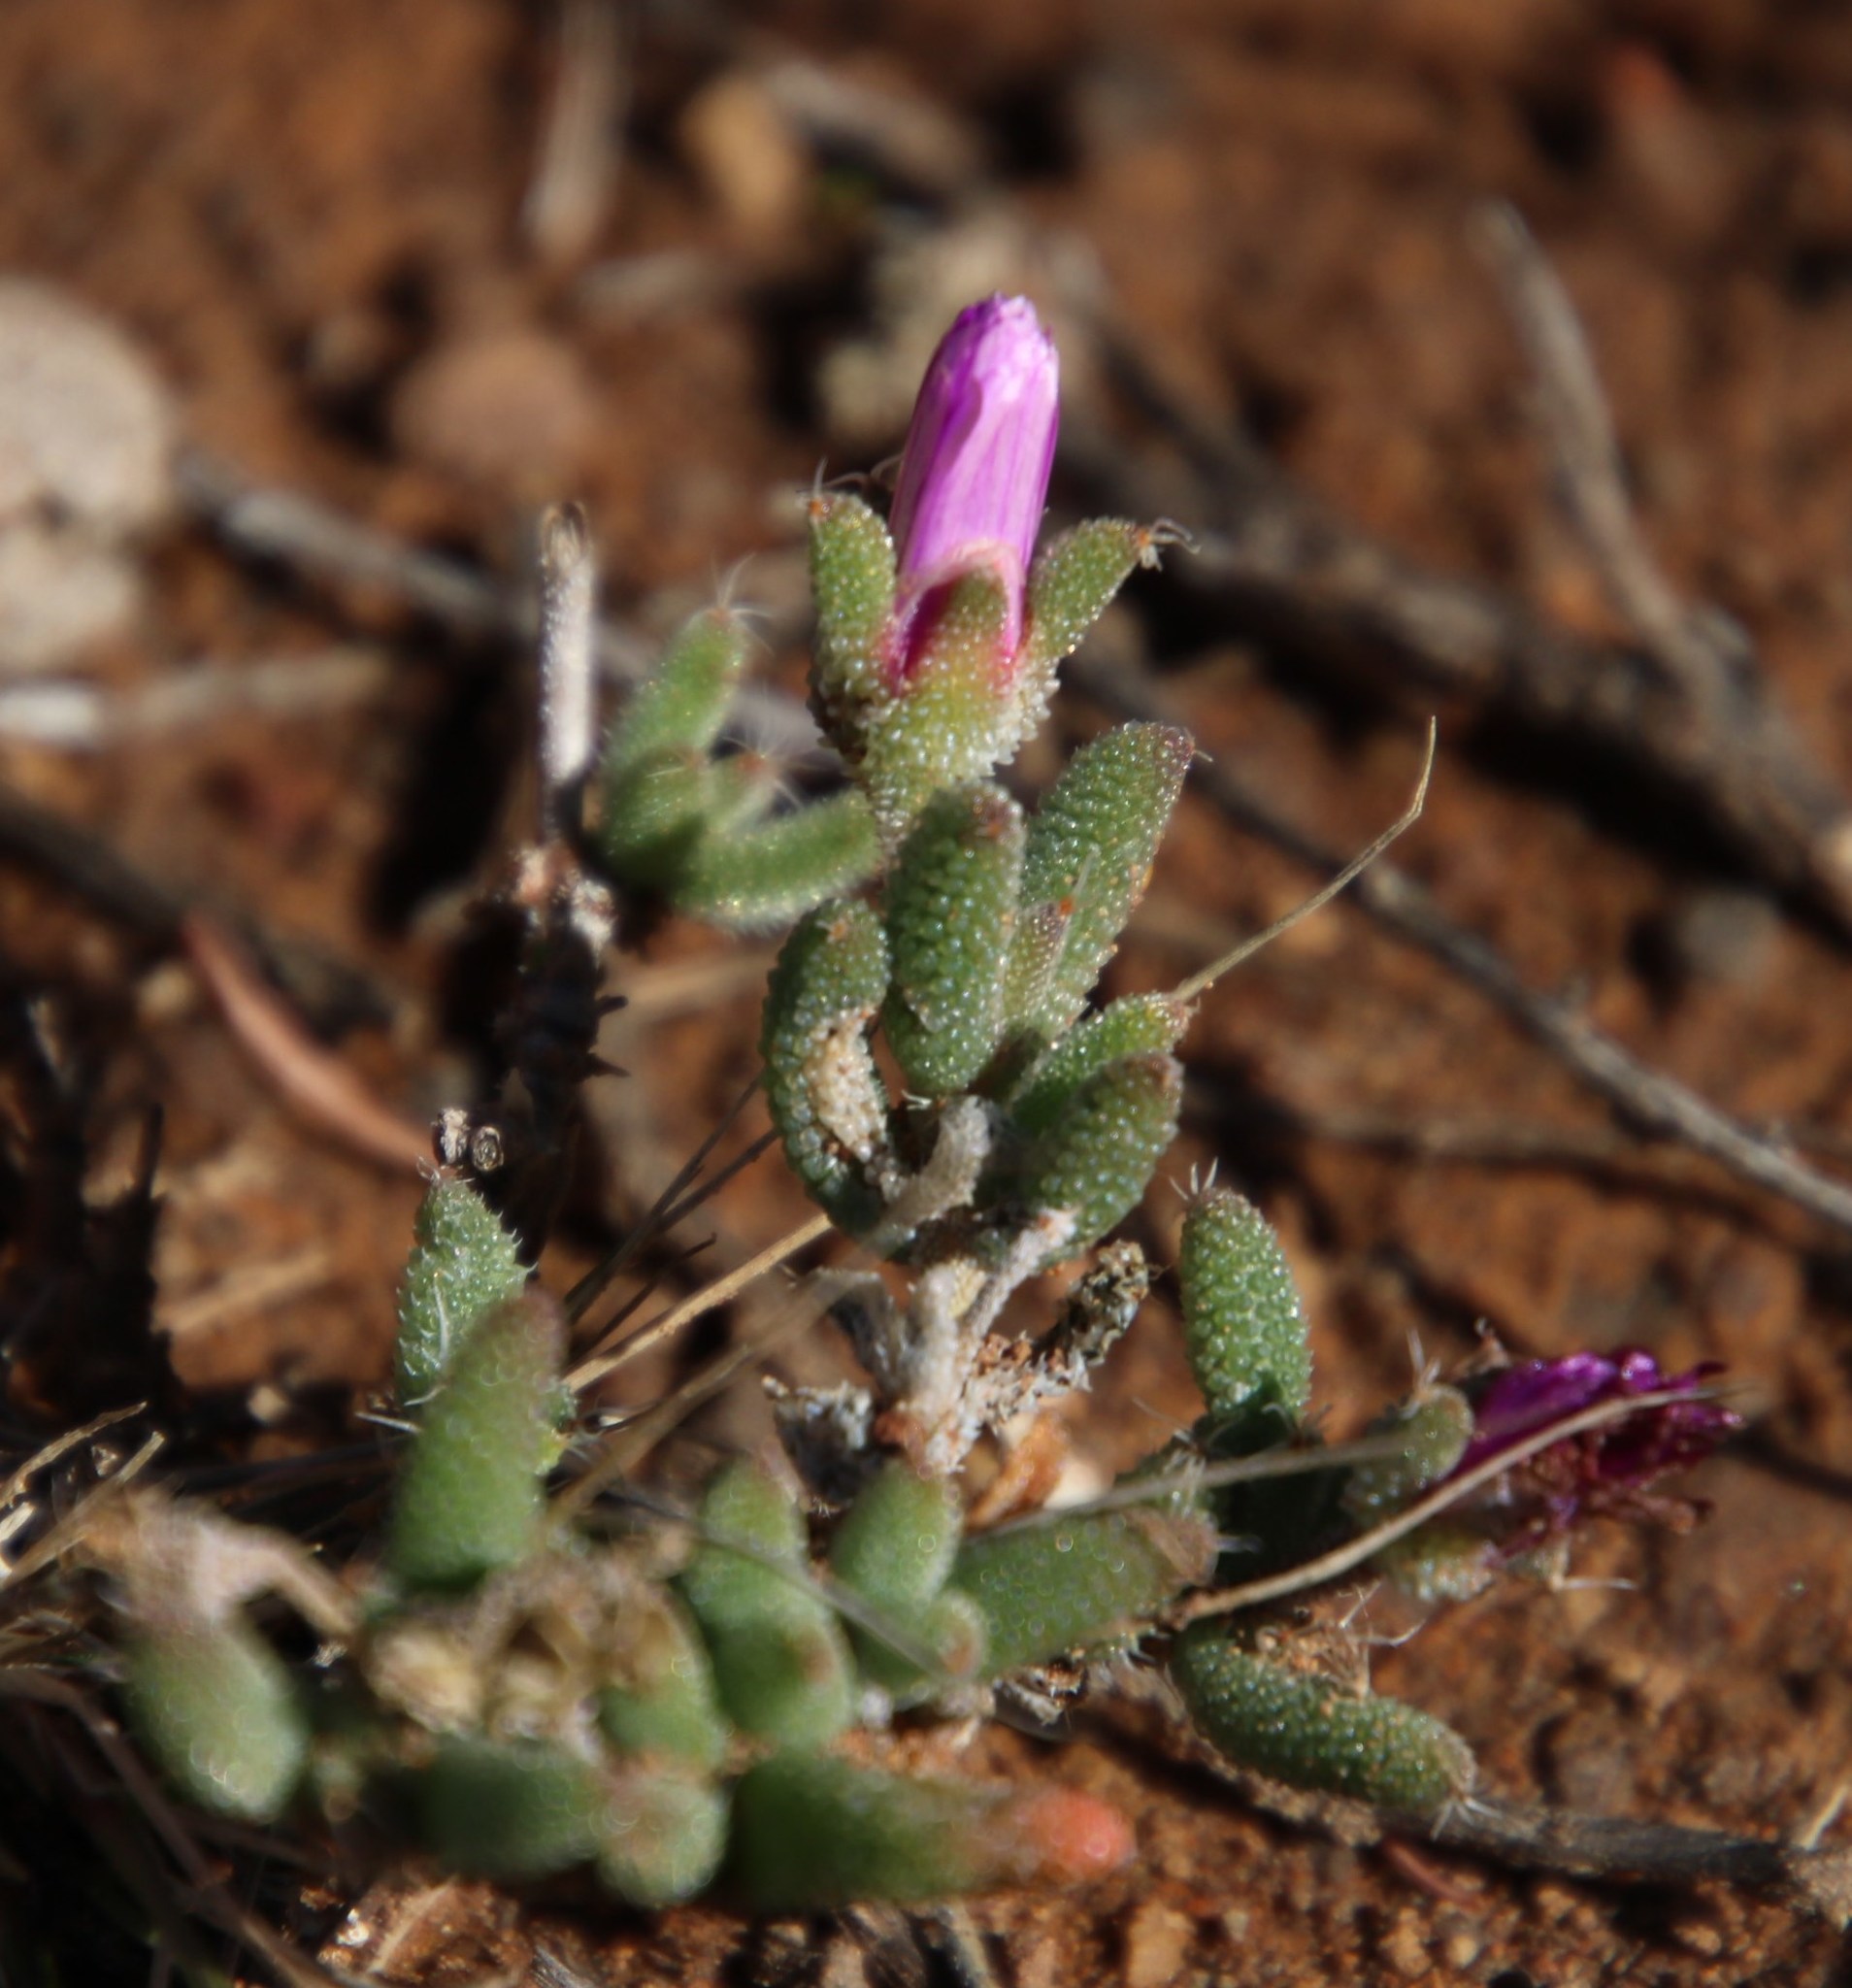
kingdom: Plantae
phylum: Tracheophyta
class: Magnoliopsida
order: Caryophyllales
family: Aizoaceae
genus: Trichodiadema
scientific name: Trichodiadema setuliferum
